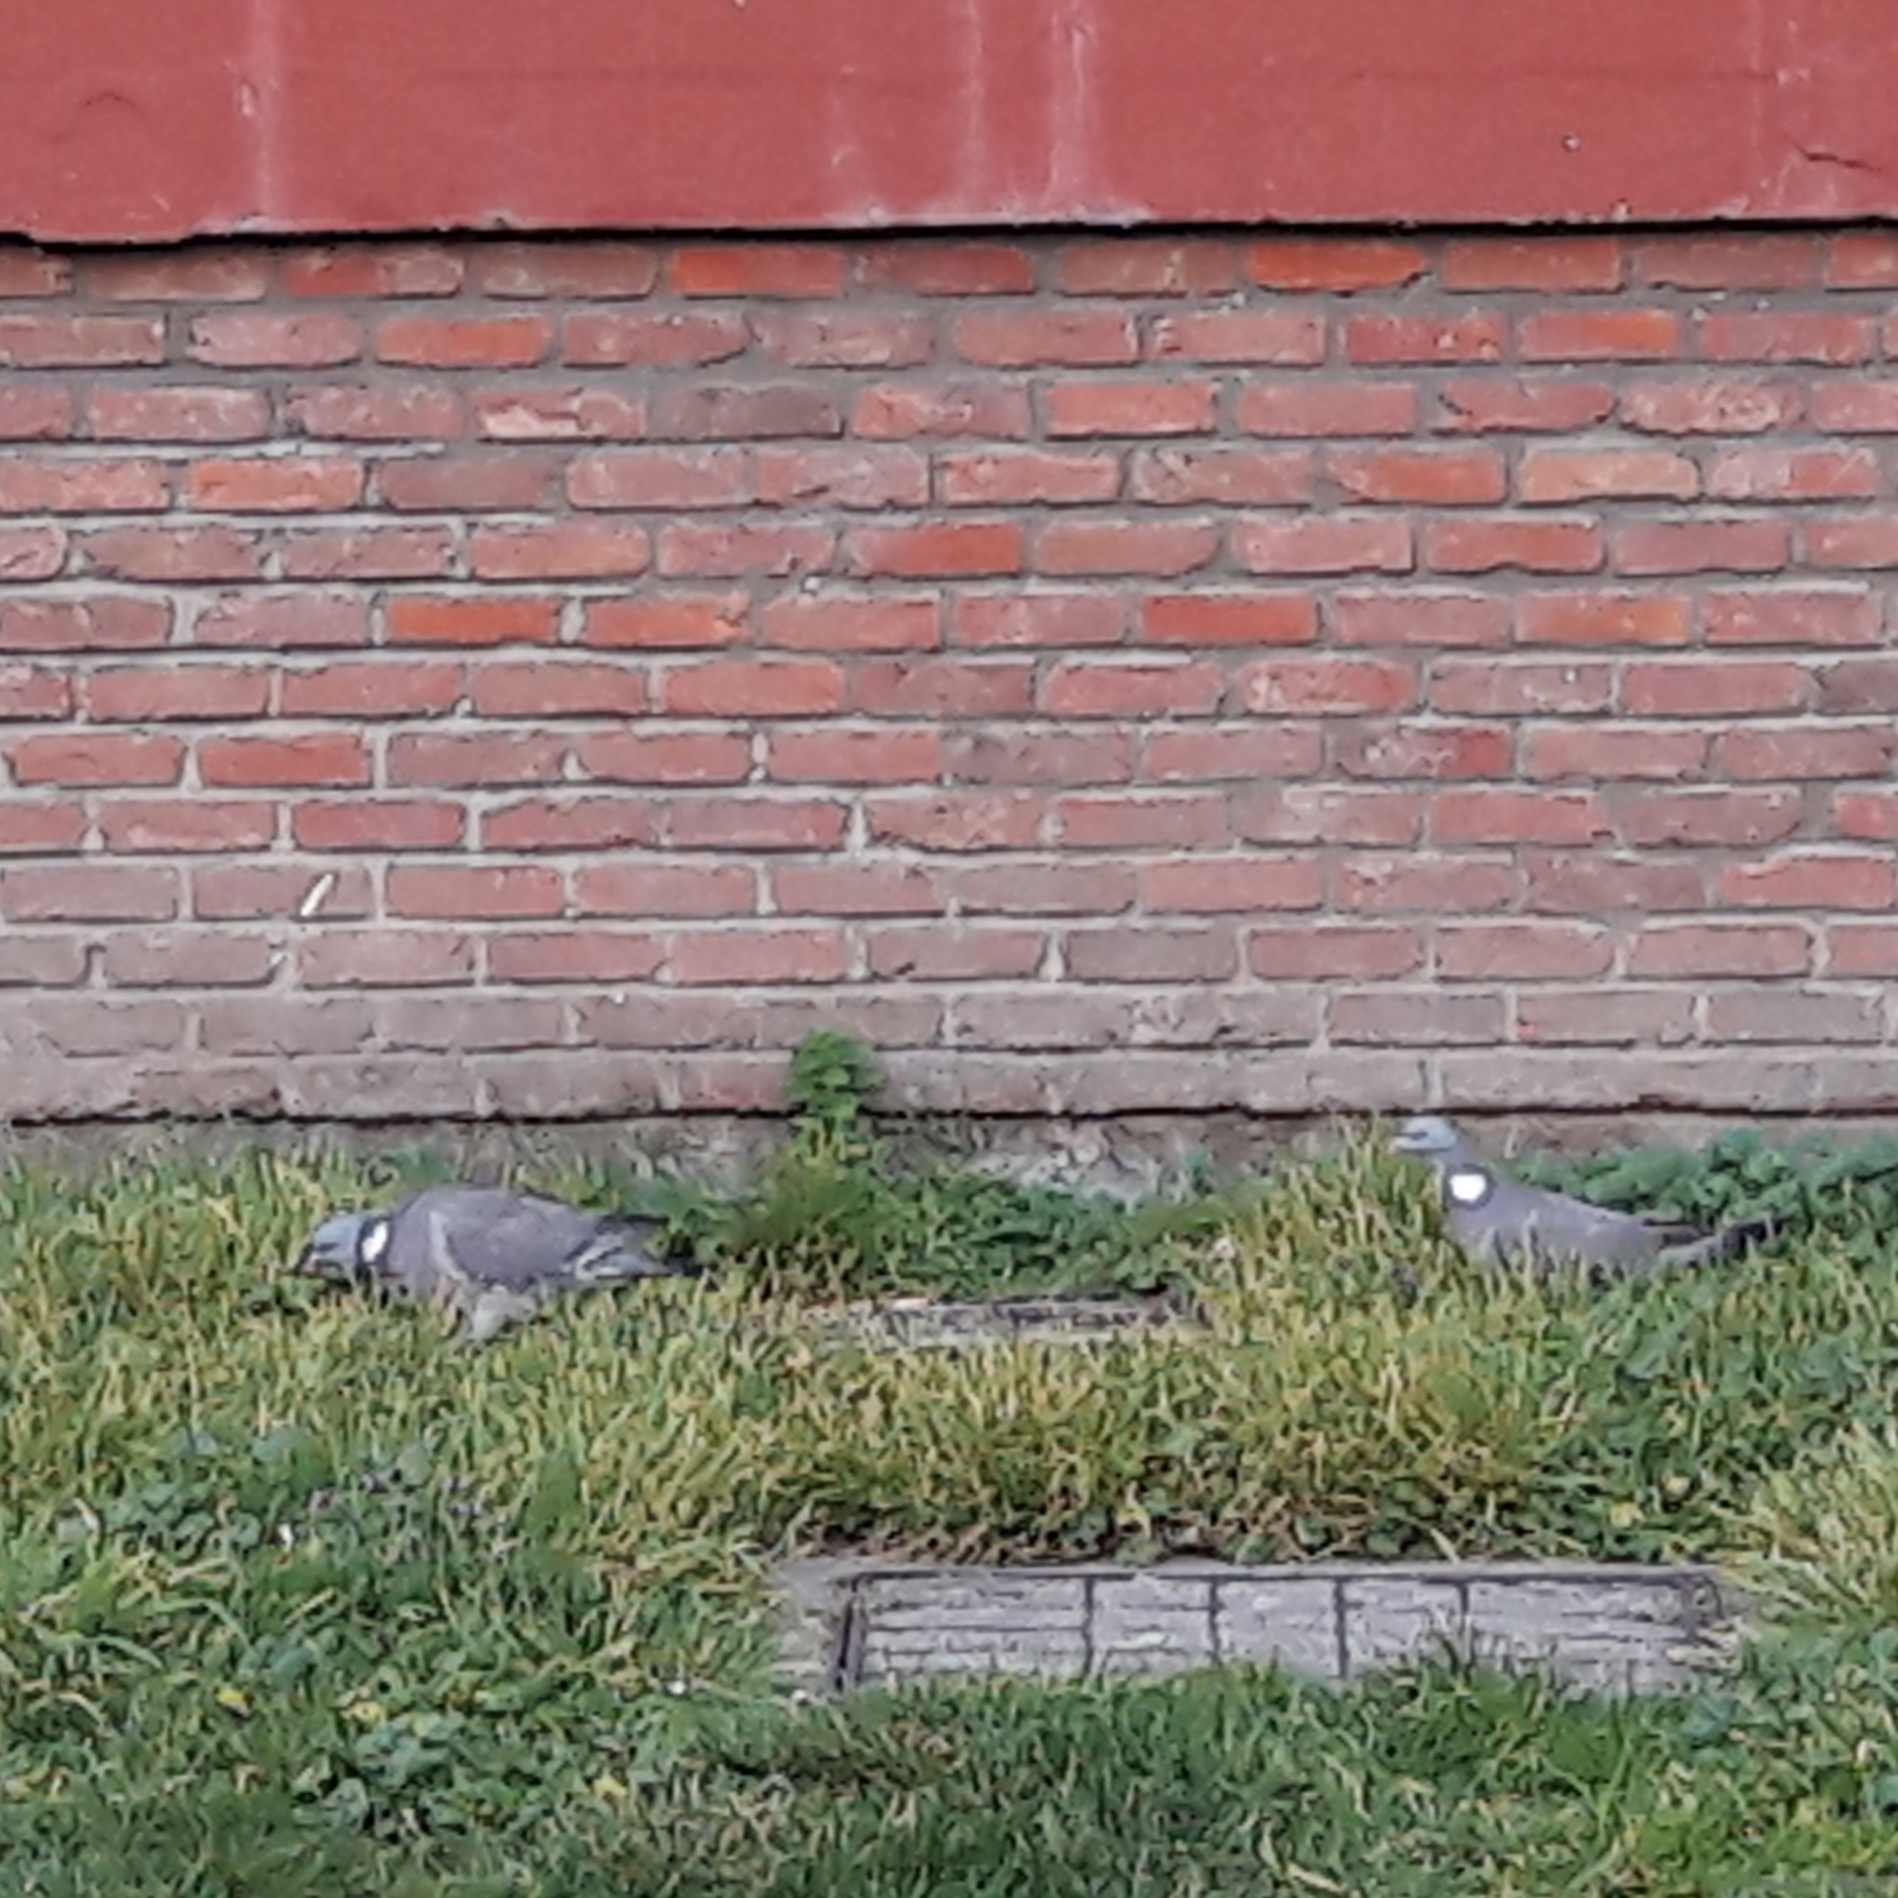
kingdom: Animalia
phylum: Chordata
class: Aves
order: Columbiformes
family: Columbidae
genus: Columba
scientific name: Columba palumbus
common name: Common wood pigeon
